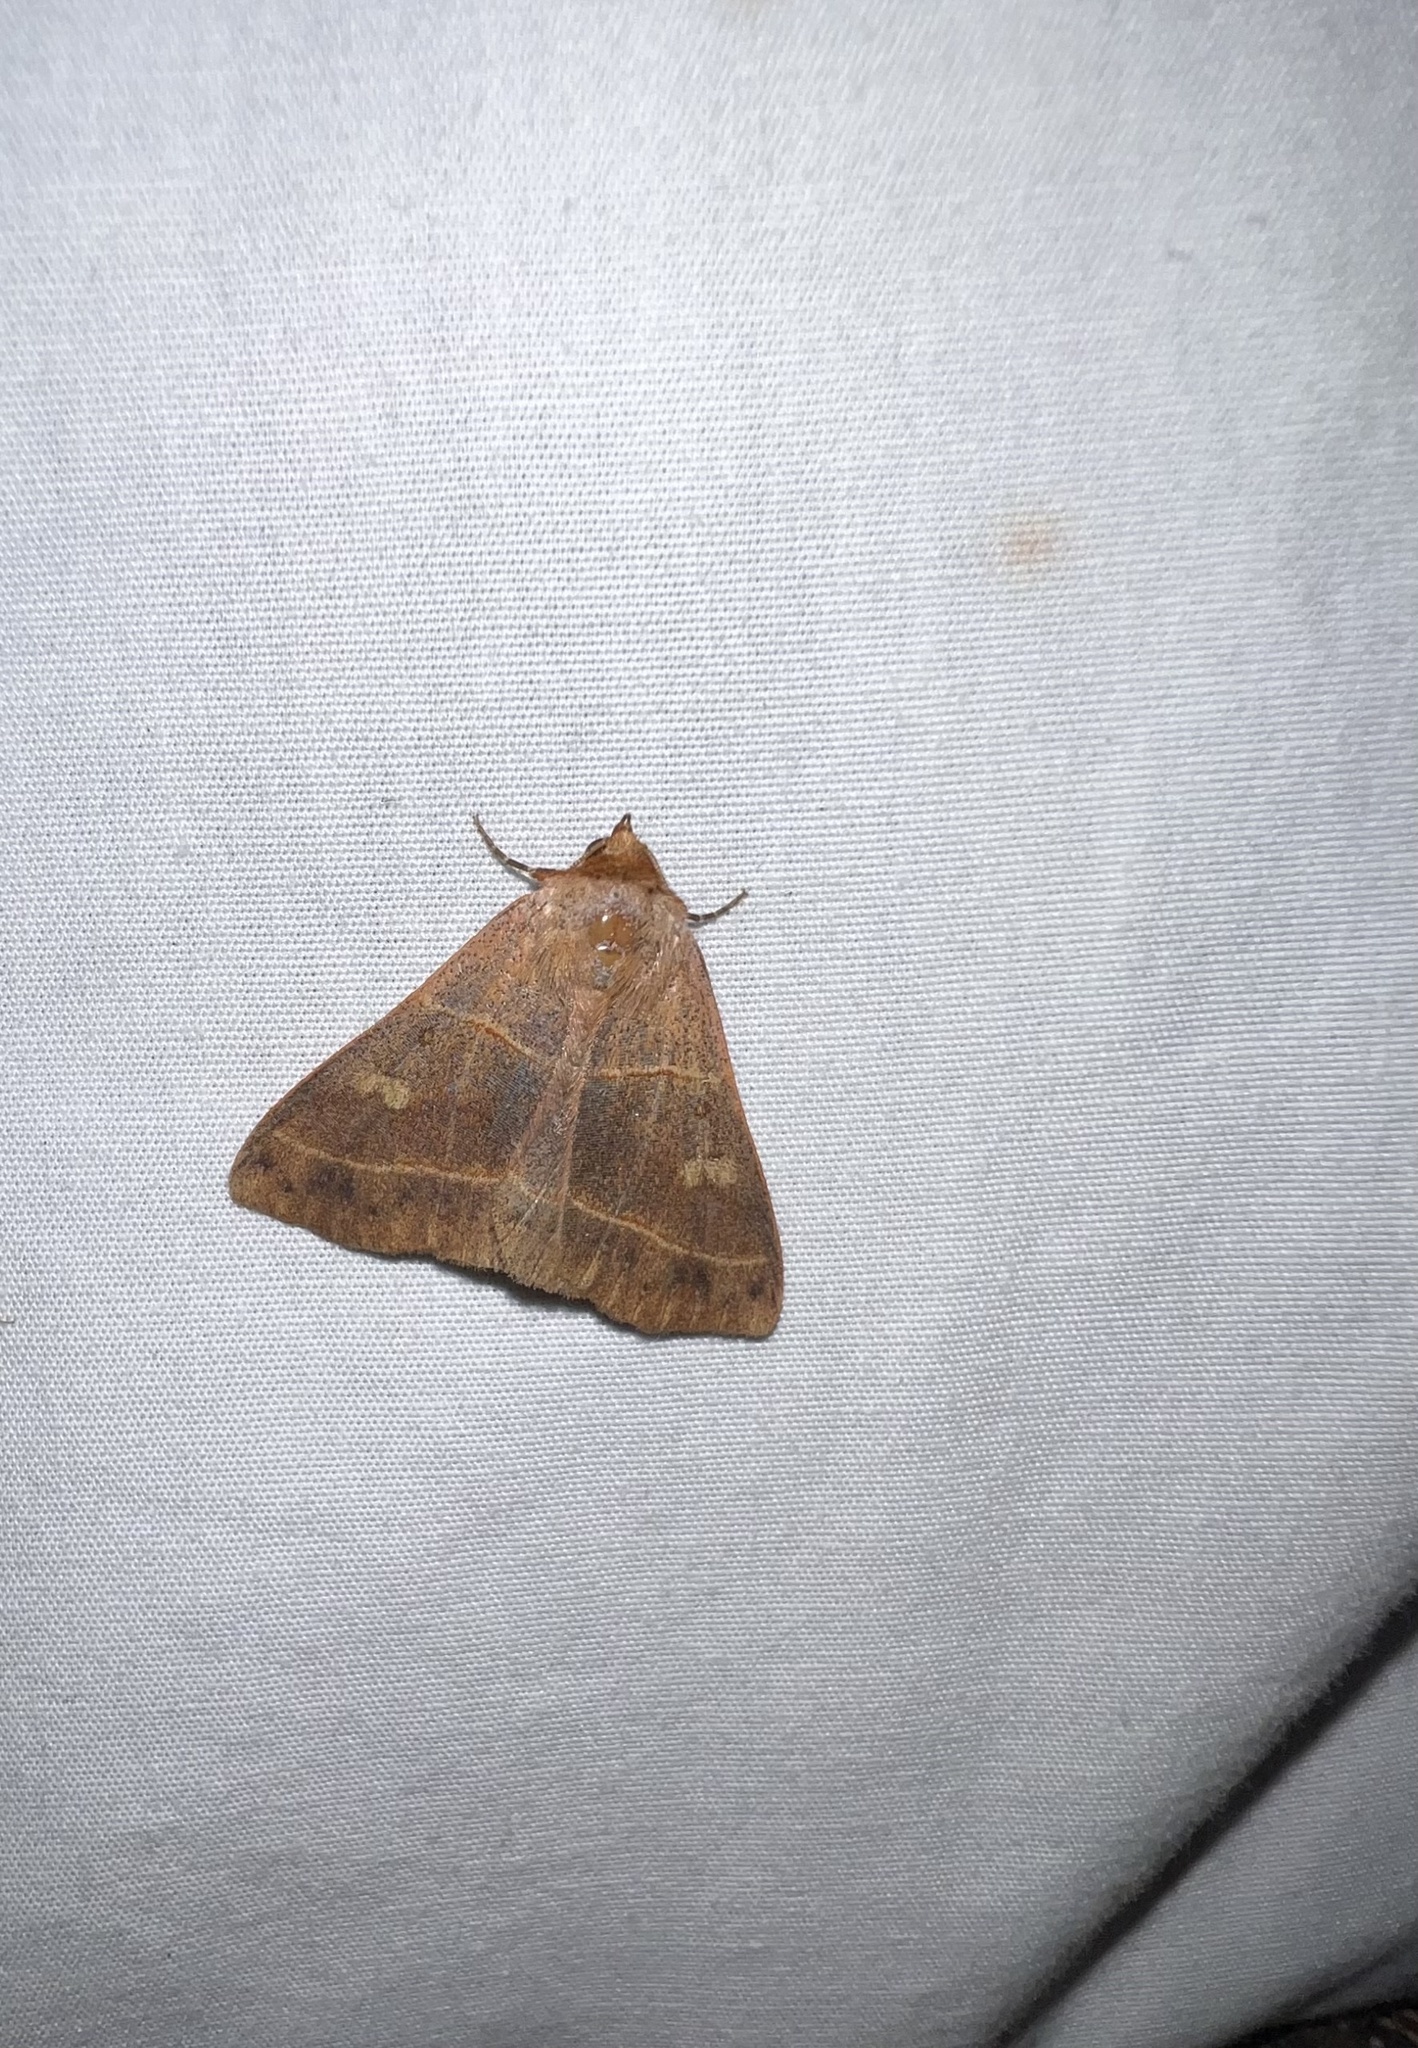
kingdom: Animalia
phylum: Arthropoda
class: Insecta
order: Lepidoptera
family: Erebidae
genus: Panopoda
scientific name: Panopoda rufimargo
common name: Red-lined panopoda moth
